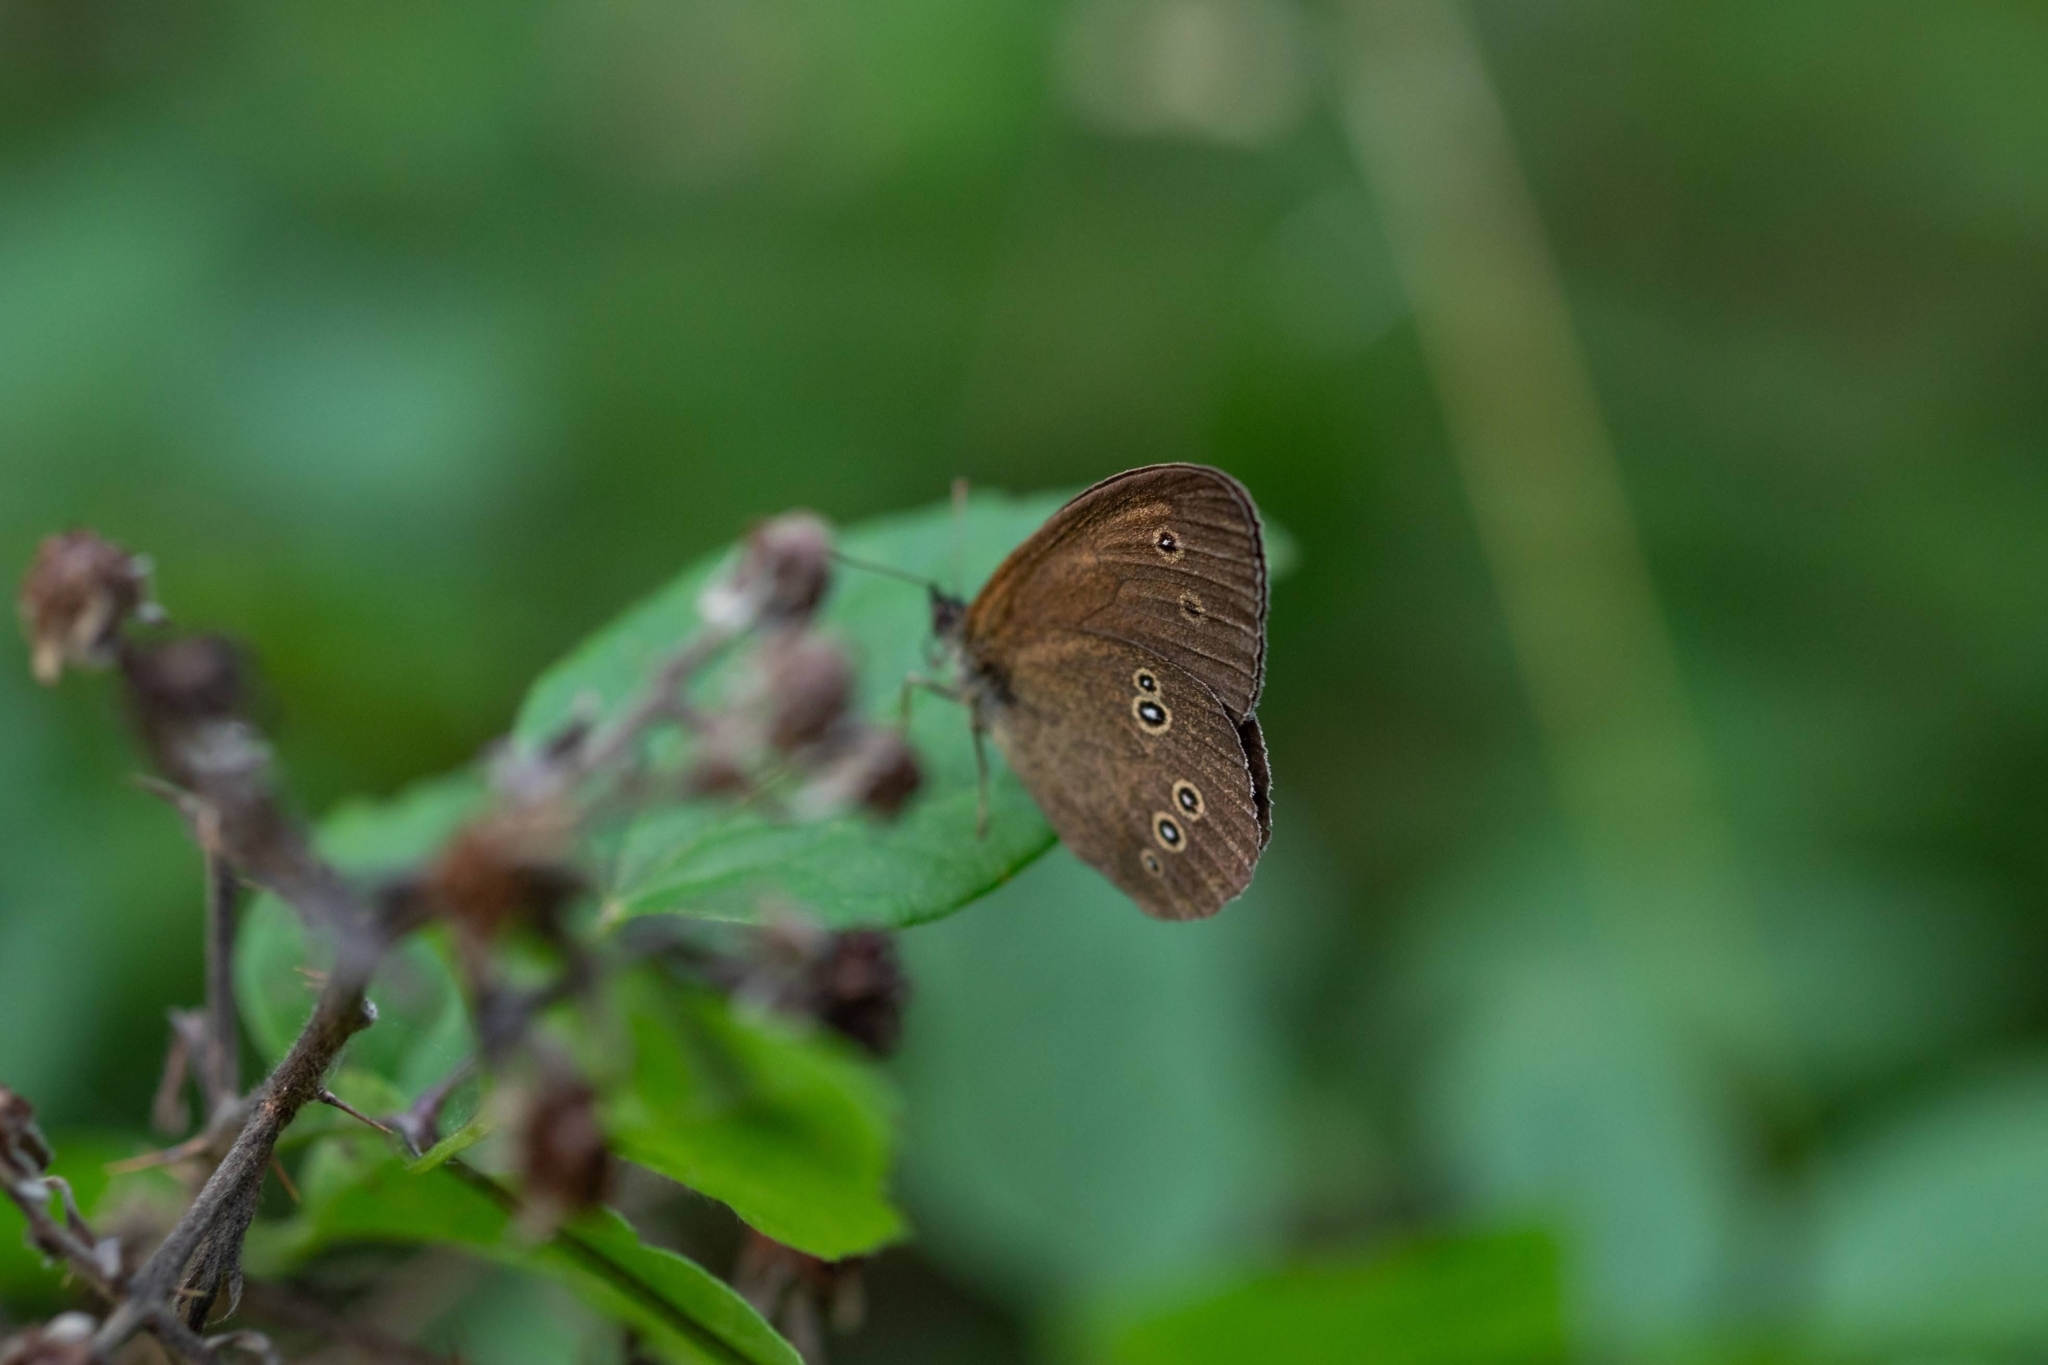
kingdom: Animalia
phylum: Arthropoda
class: Insecta
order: Lepidoptera
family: Nymphalidae
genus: Aphantopus
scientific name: Aphantopus hyperantus
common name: Ringlet
